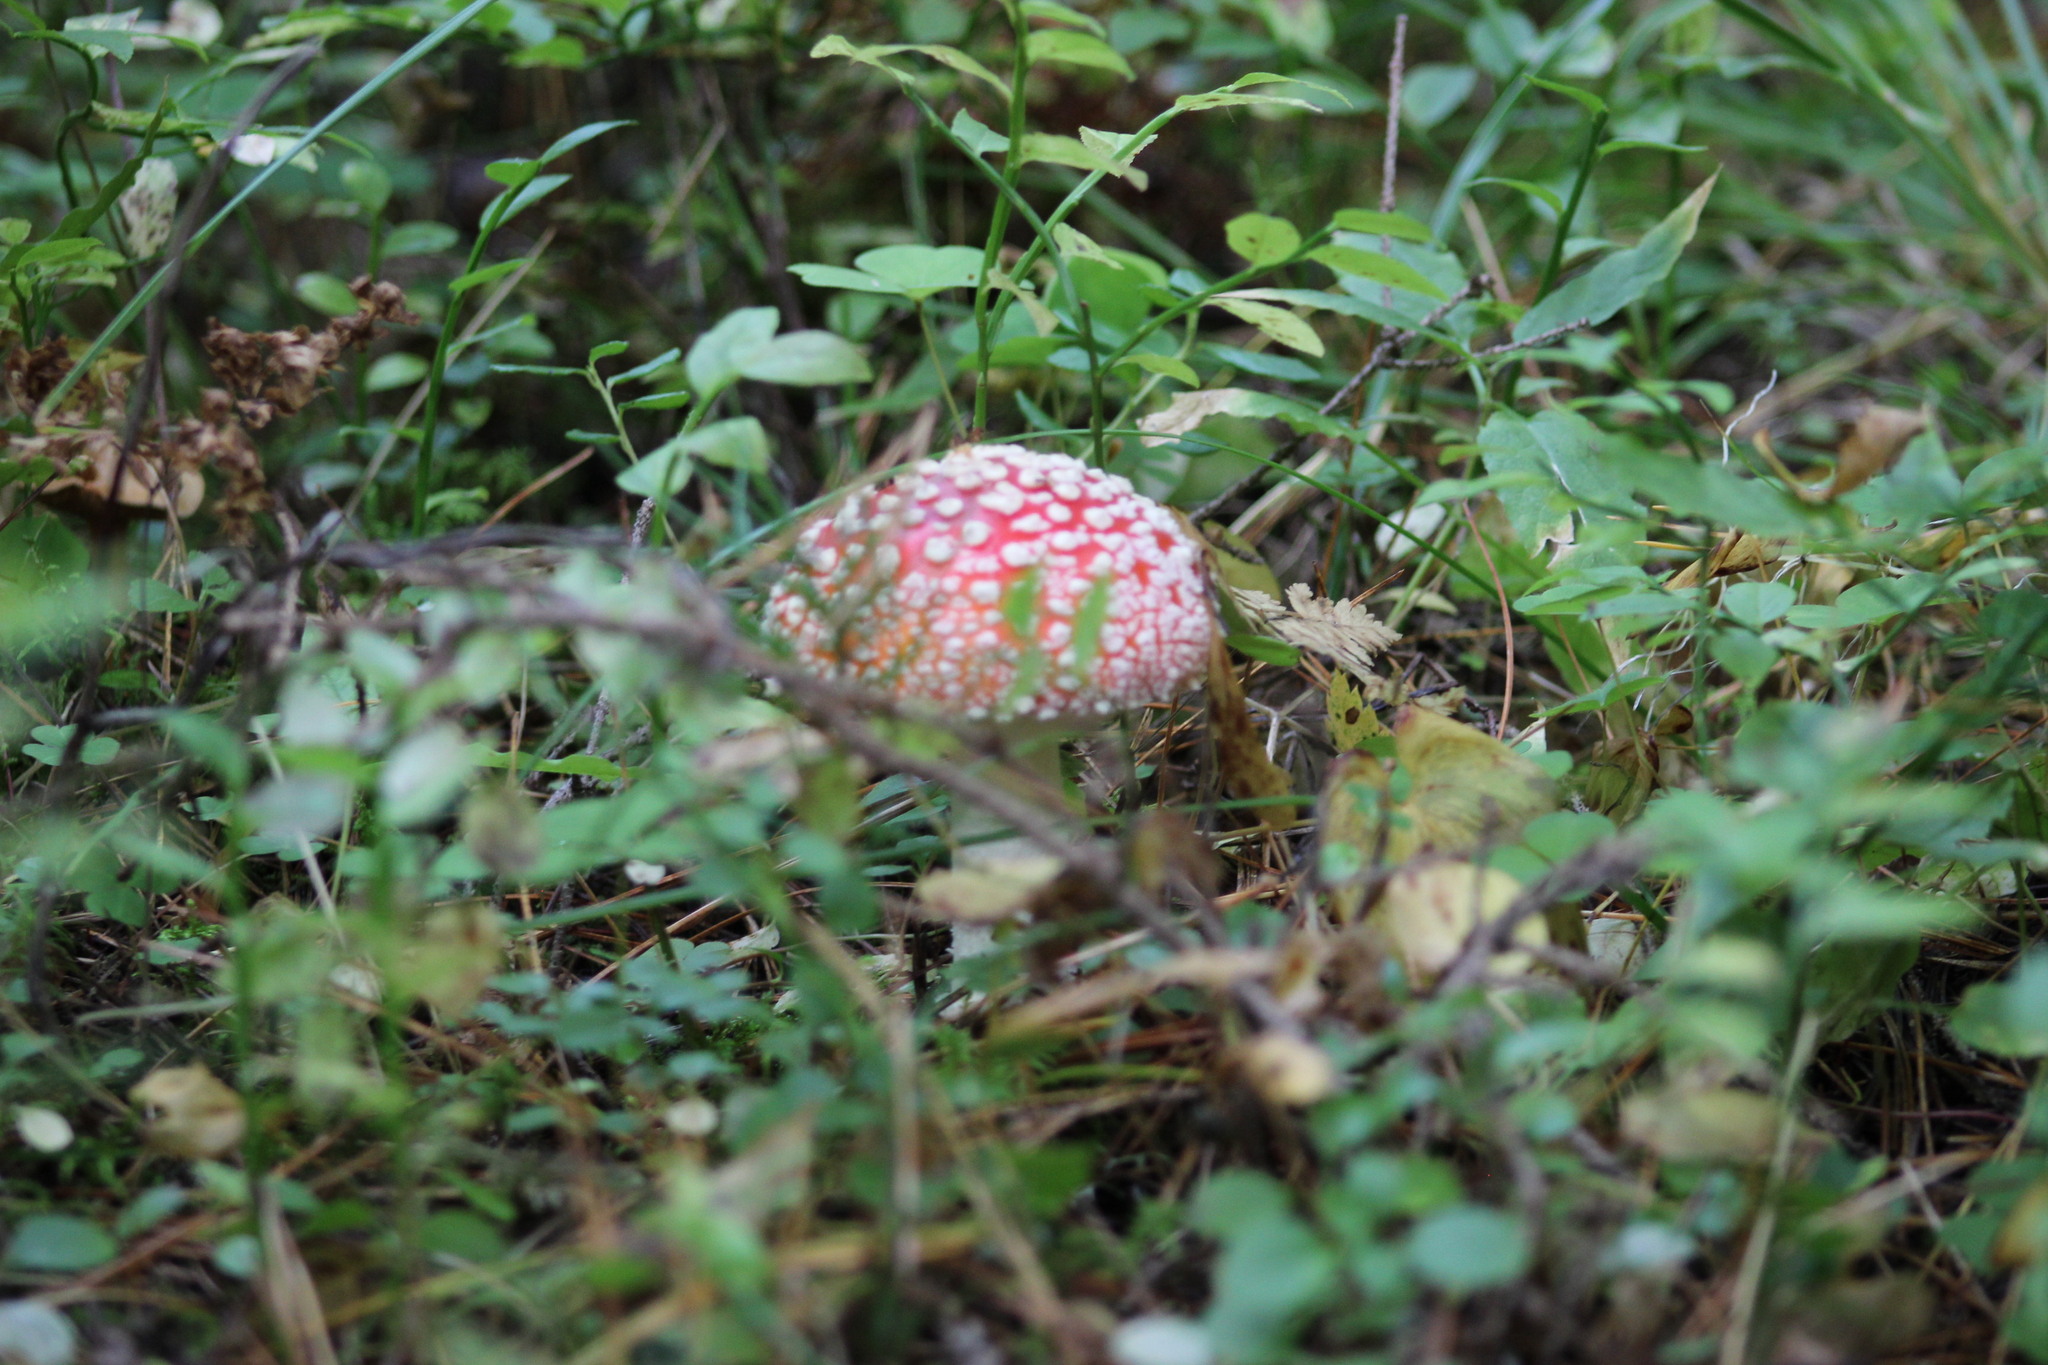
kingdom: Fungi
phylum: Basidiomycota
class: Agaricomycetes
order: Agaricales
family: Amanitaceae
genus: Amanita
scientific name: Amanita muscaria
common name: Fly agaric
